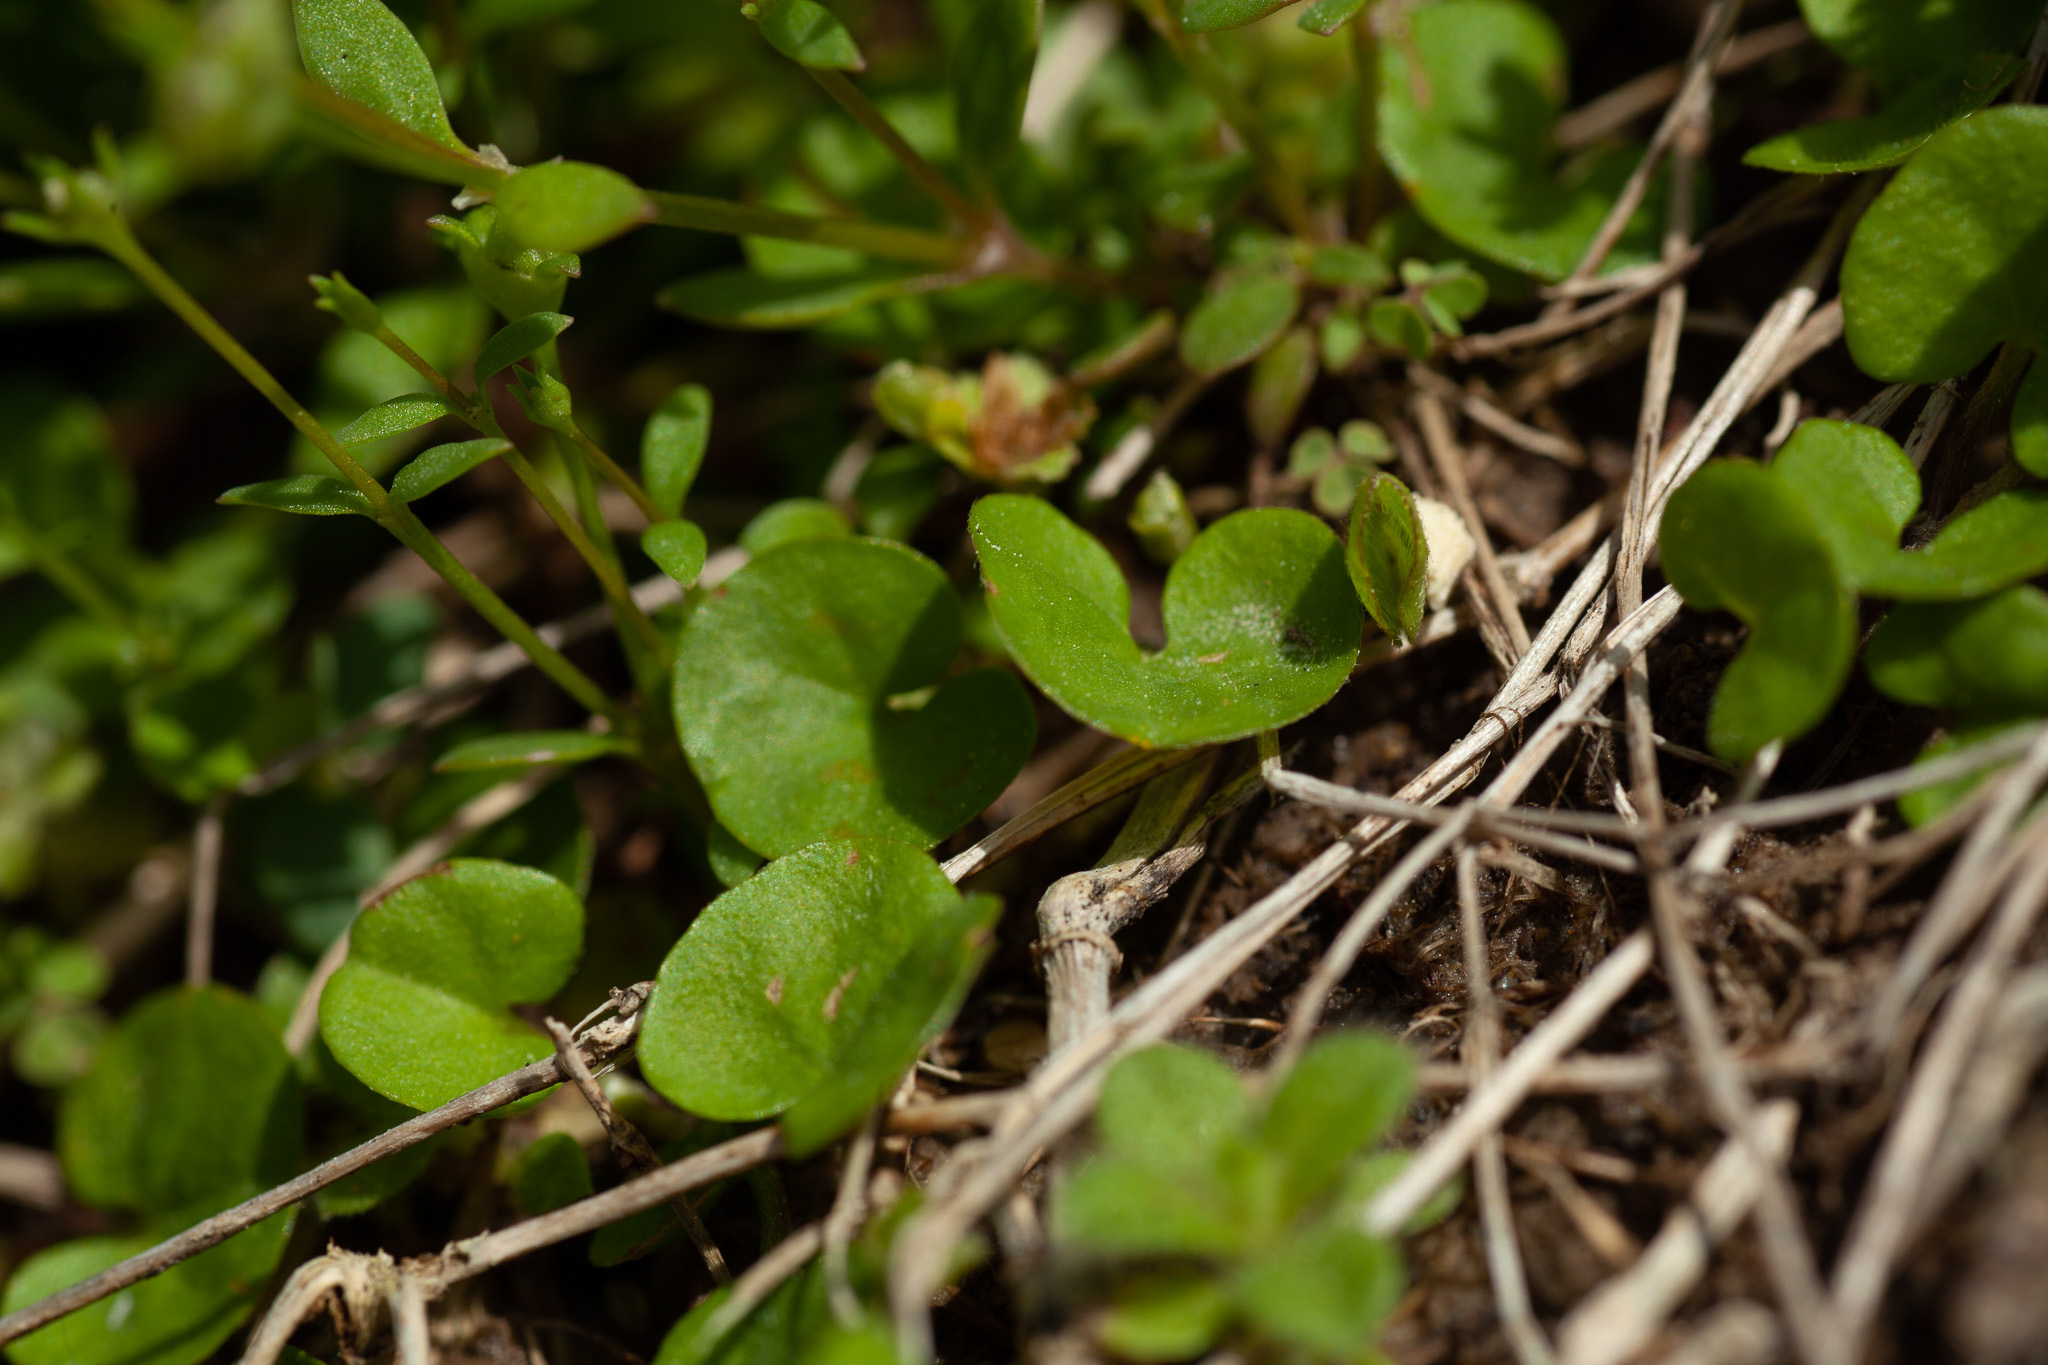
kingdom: Plantae
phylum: Tracheophyta
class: Magnoliopsida
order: Solanales
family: Convolvulaceae
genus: Dichondra
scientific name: Dichondra carolinensis
